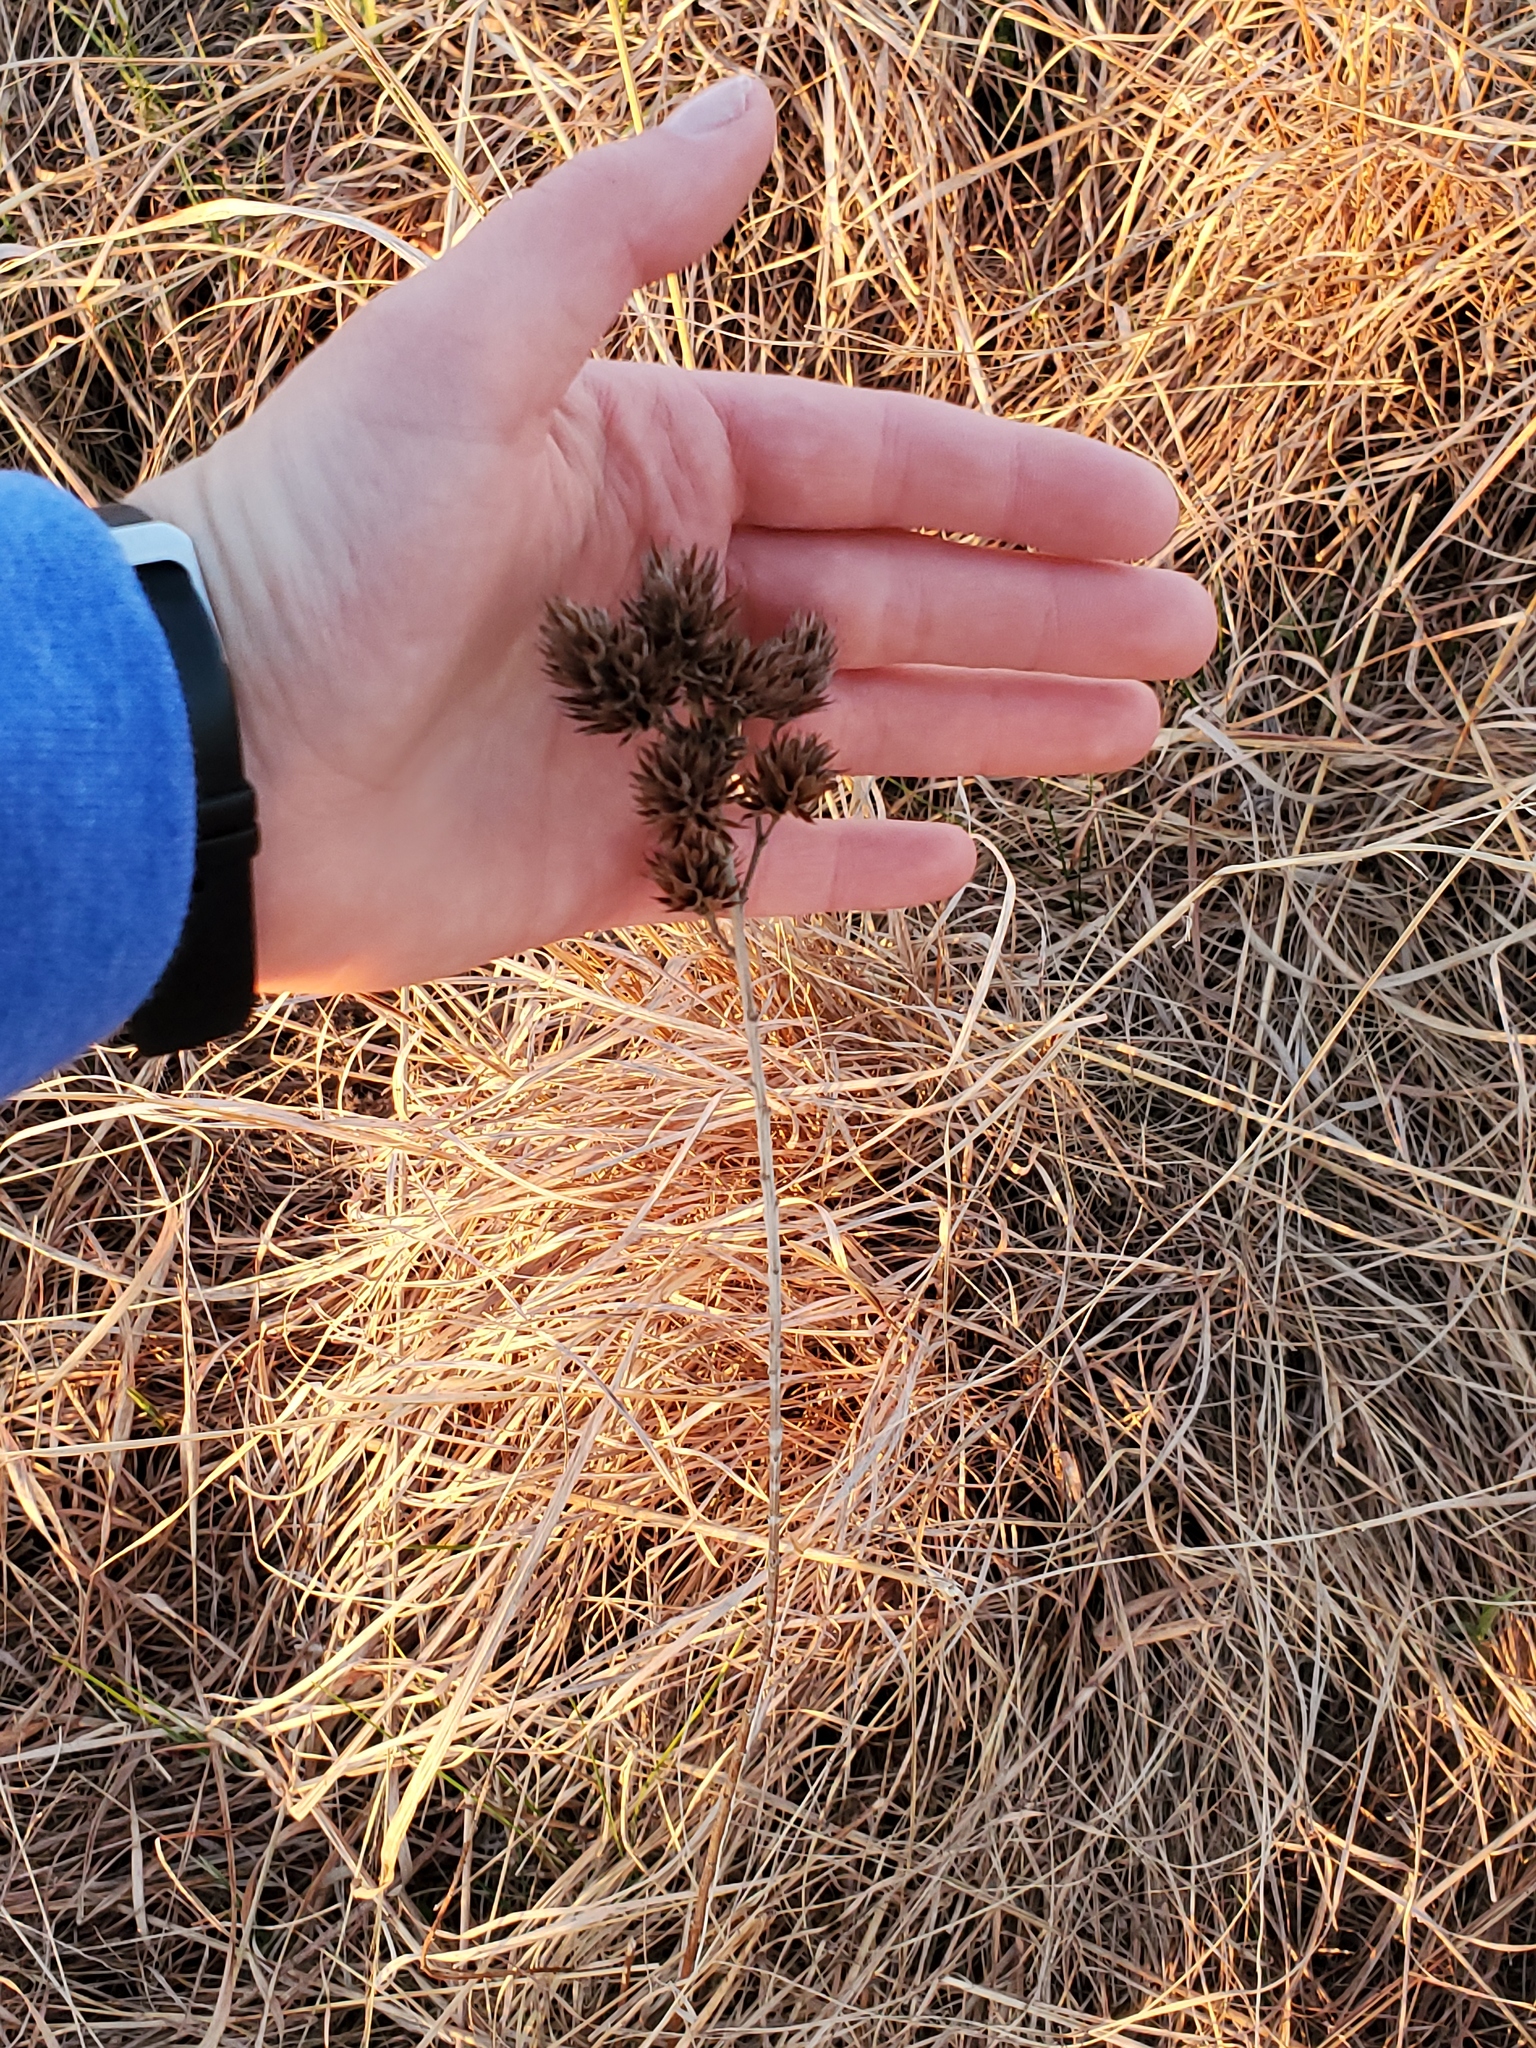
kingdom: Plantae
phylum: Tracheophyta
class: Magnoliopsida
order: Fabales
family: Fabaceae
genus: Lespedeza
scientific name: Lespedeza capitata
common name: Dusty clover
